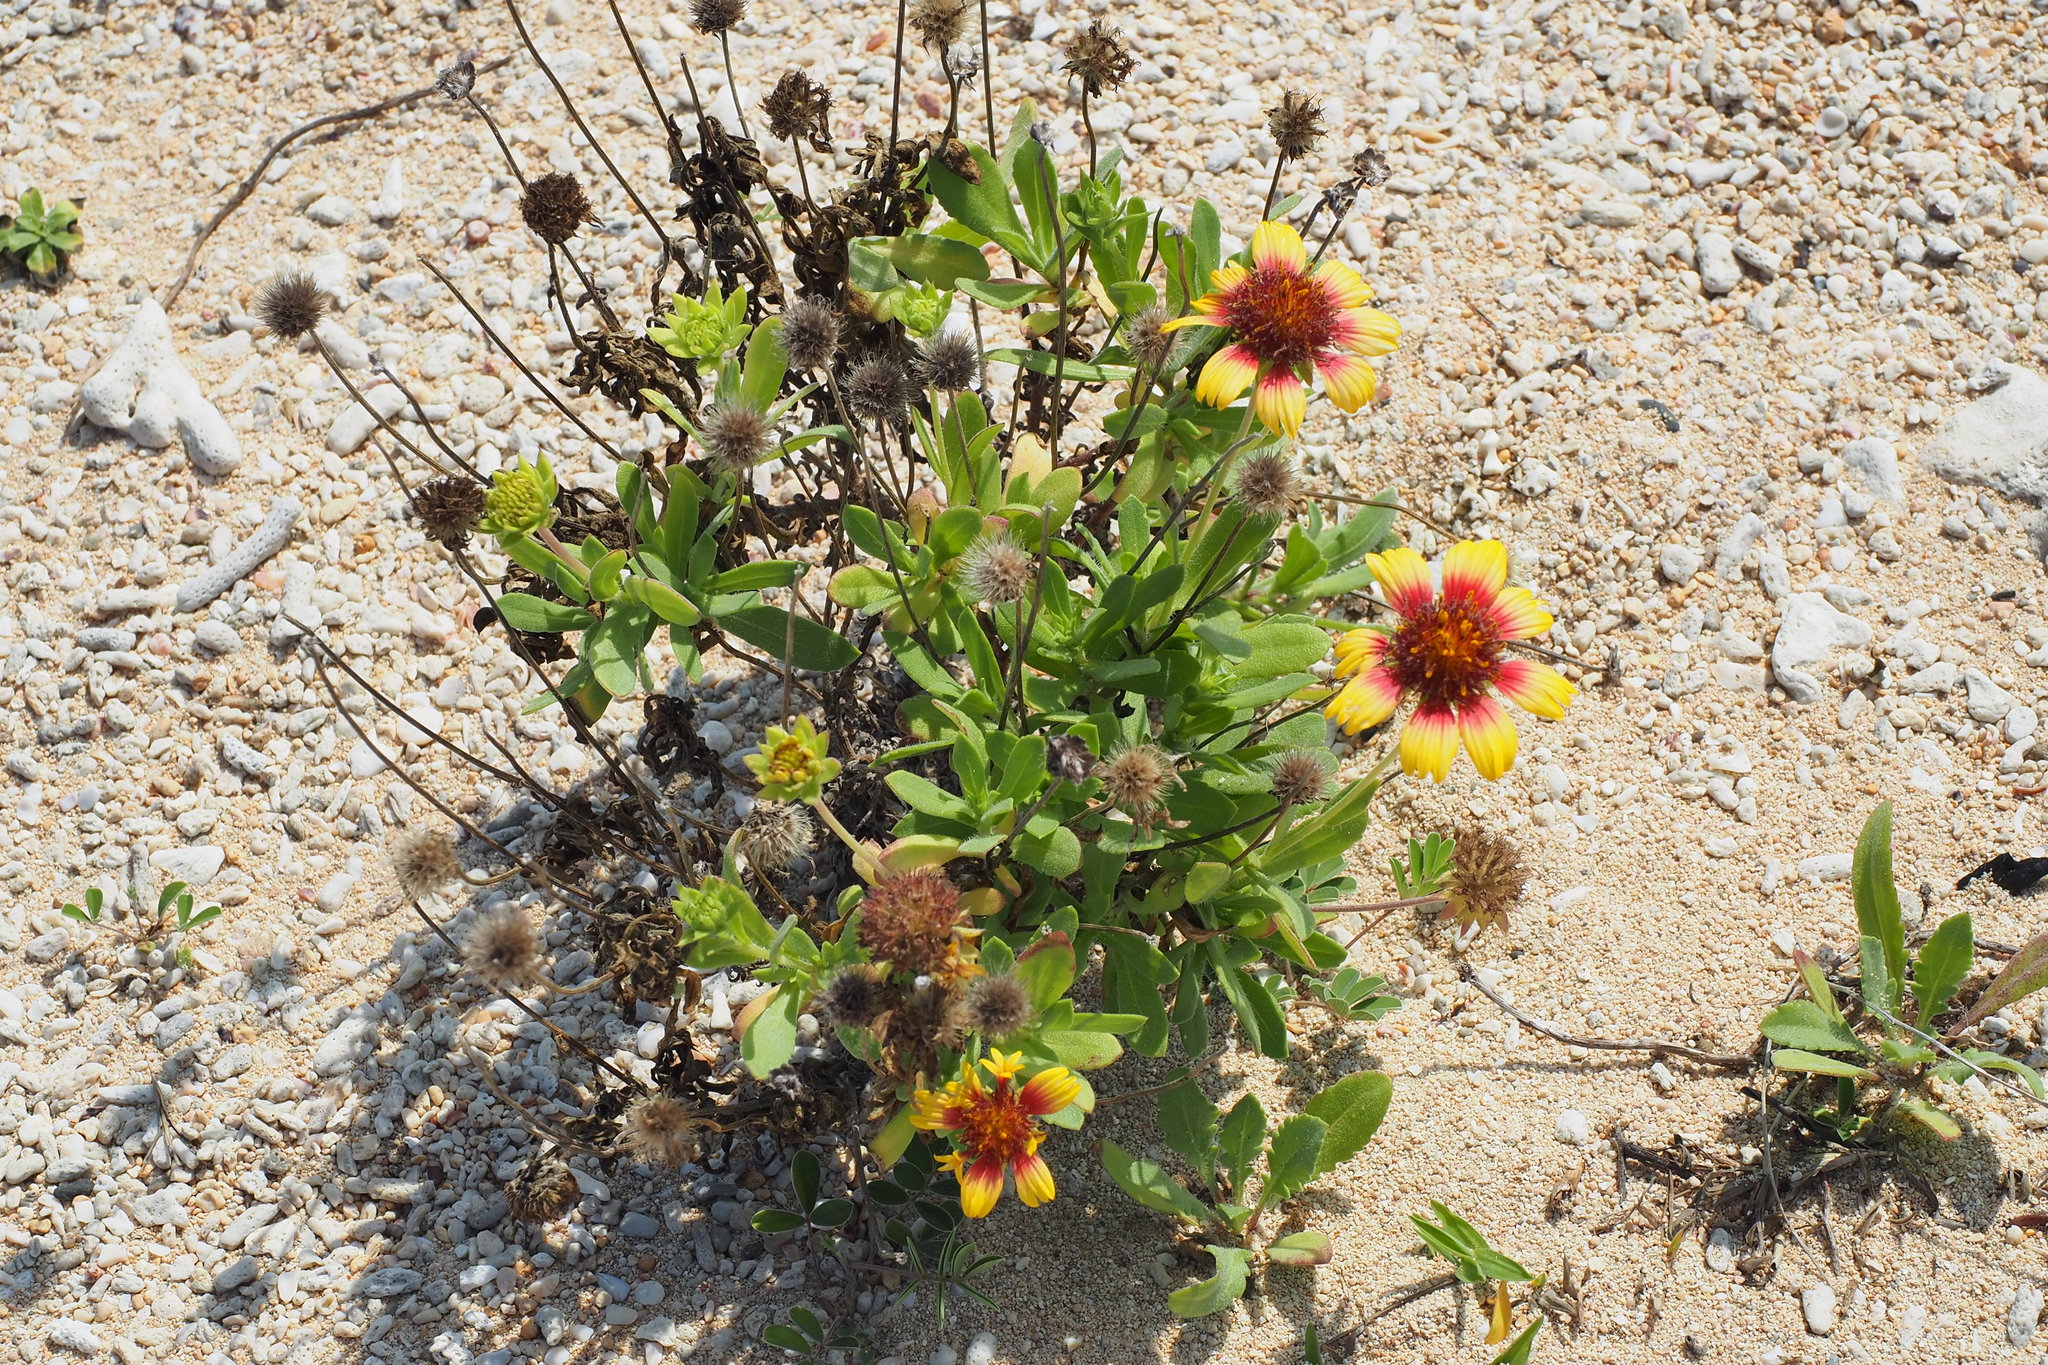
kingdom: Plantae
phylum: Tracheophyta
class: Magnoliopsida
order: Asterales
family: Asteraceae
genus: Gaillardia
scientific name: Gaillardia pulchella
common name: Firewheel
